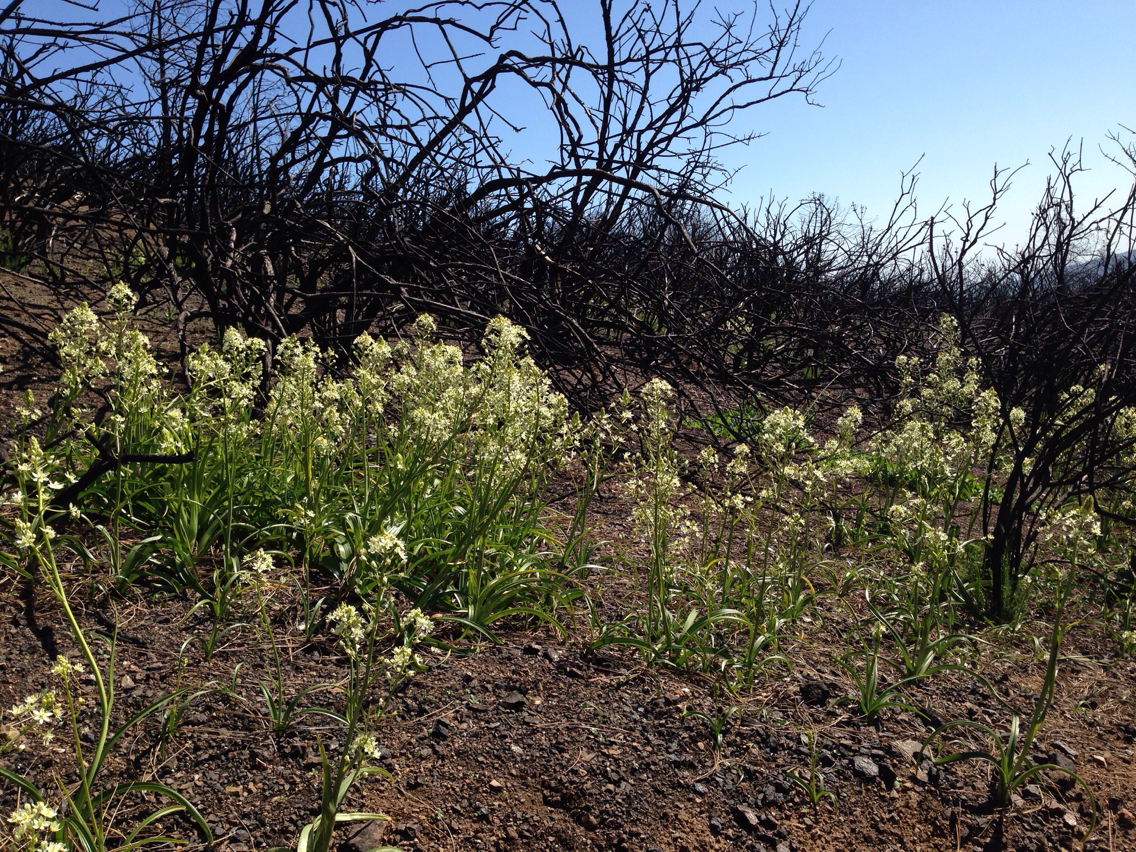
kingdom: Plantae
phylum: Tracheophyta
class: Liliopsida
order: Liliales
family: Melanthiaceae
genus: Toxicoscordion
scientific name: Toxicoscordion fremontii
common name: Fremont's death camas
